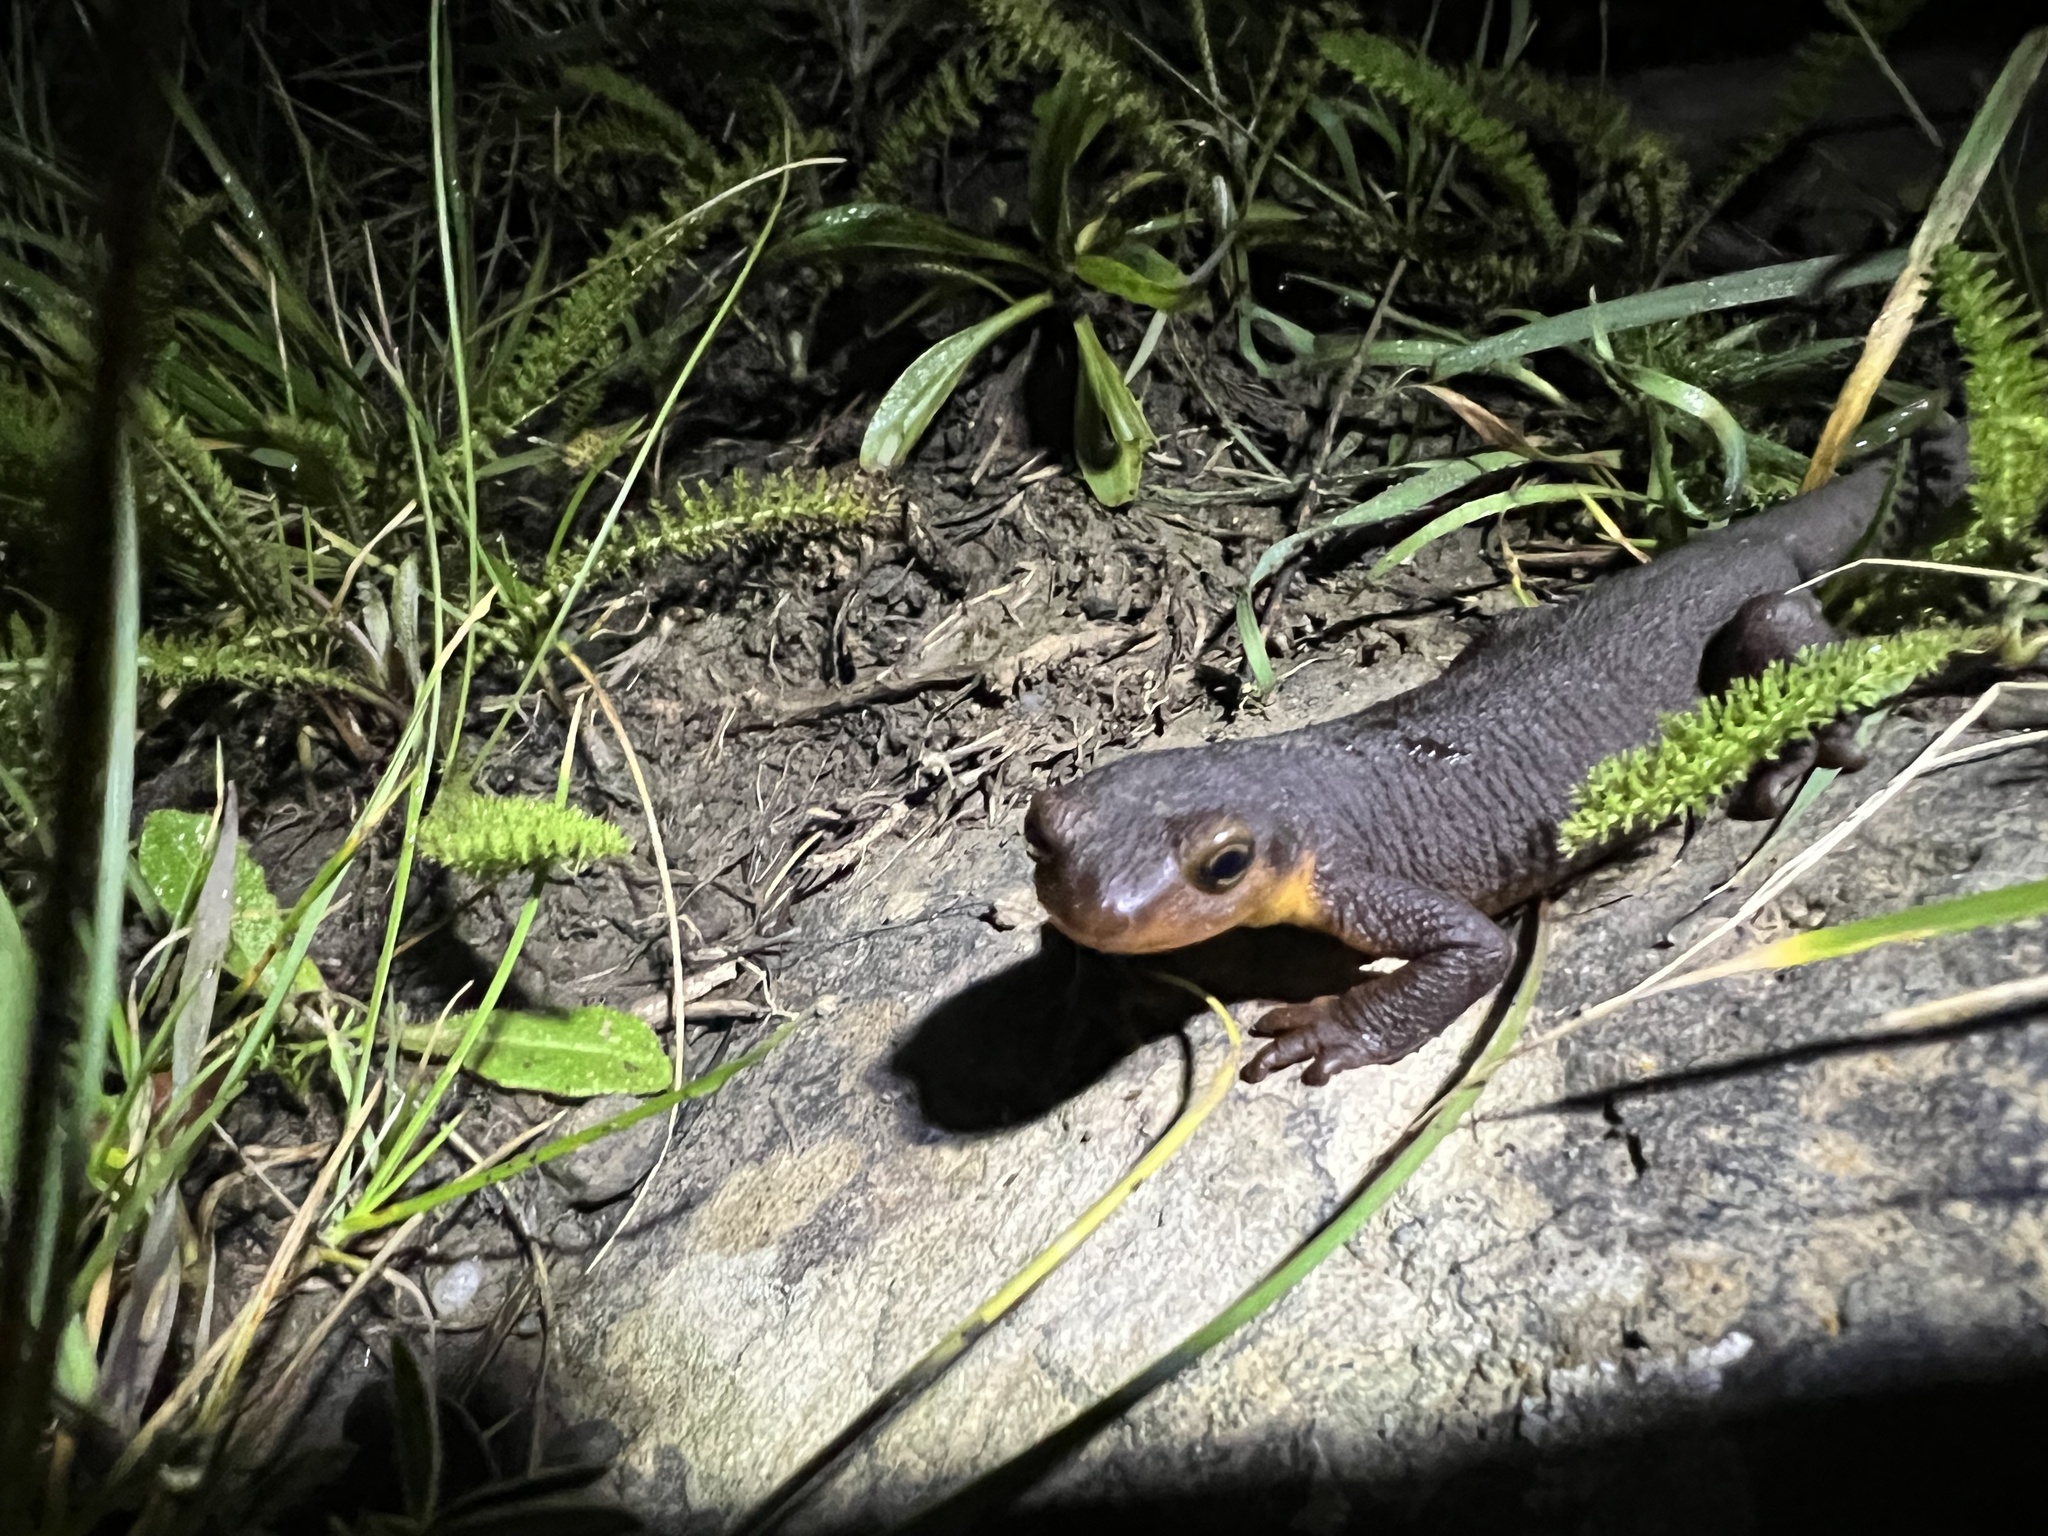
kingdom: Animalia
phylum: Chordata
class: Amphibia
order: Caudata
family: Salamandridae
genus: Taricha
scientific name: Taricha torosa
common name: California newt
